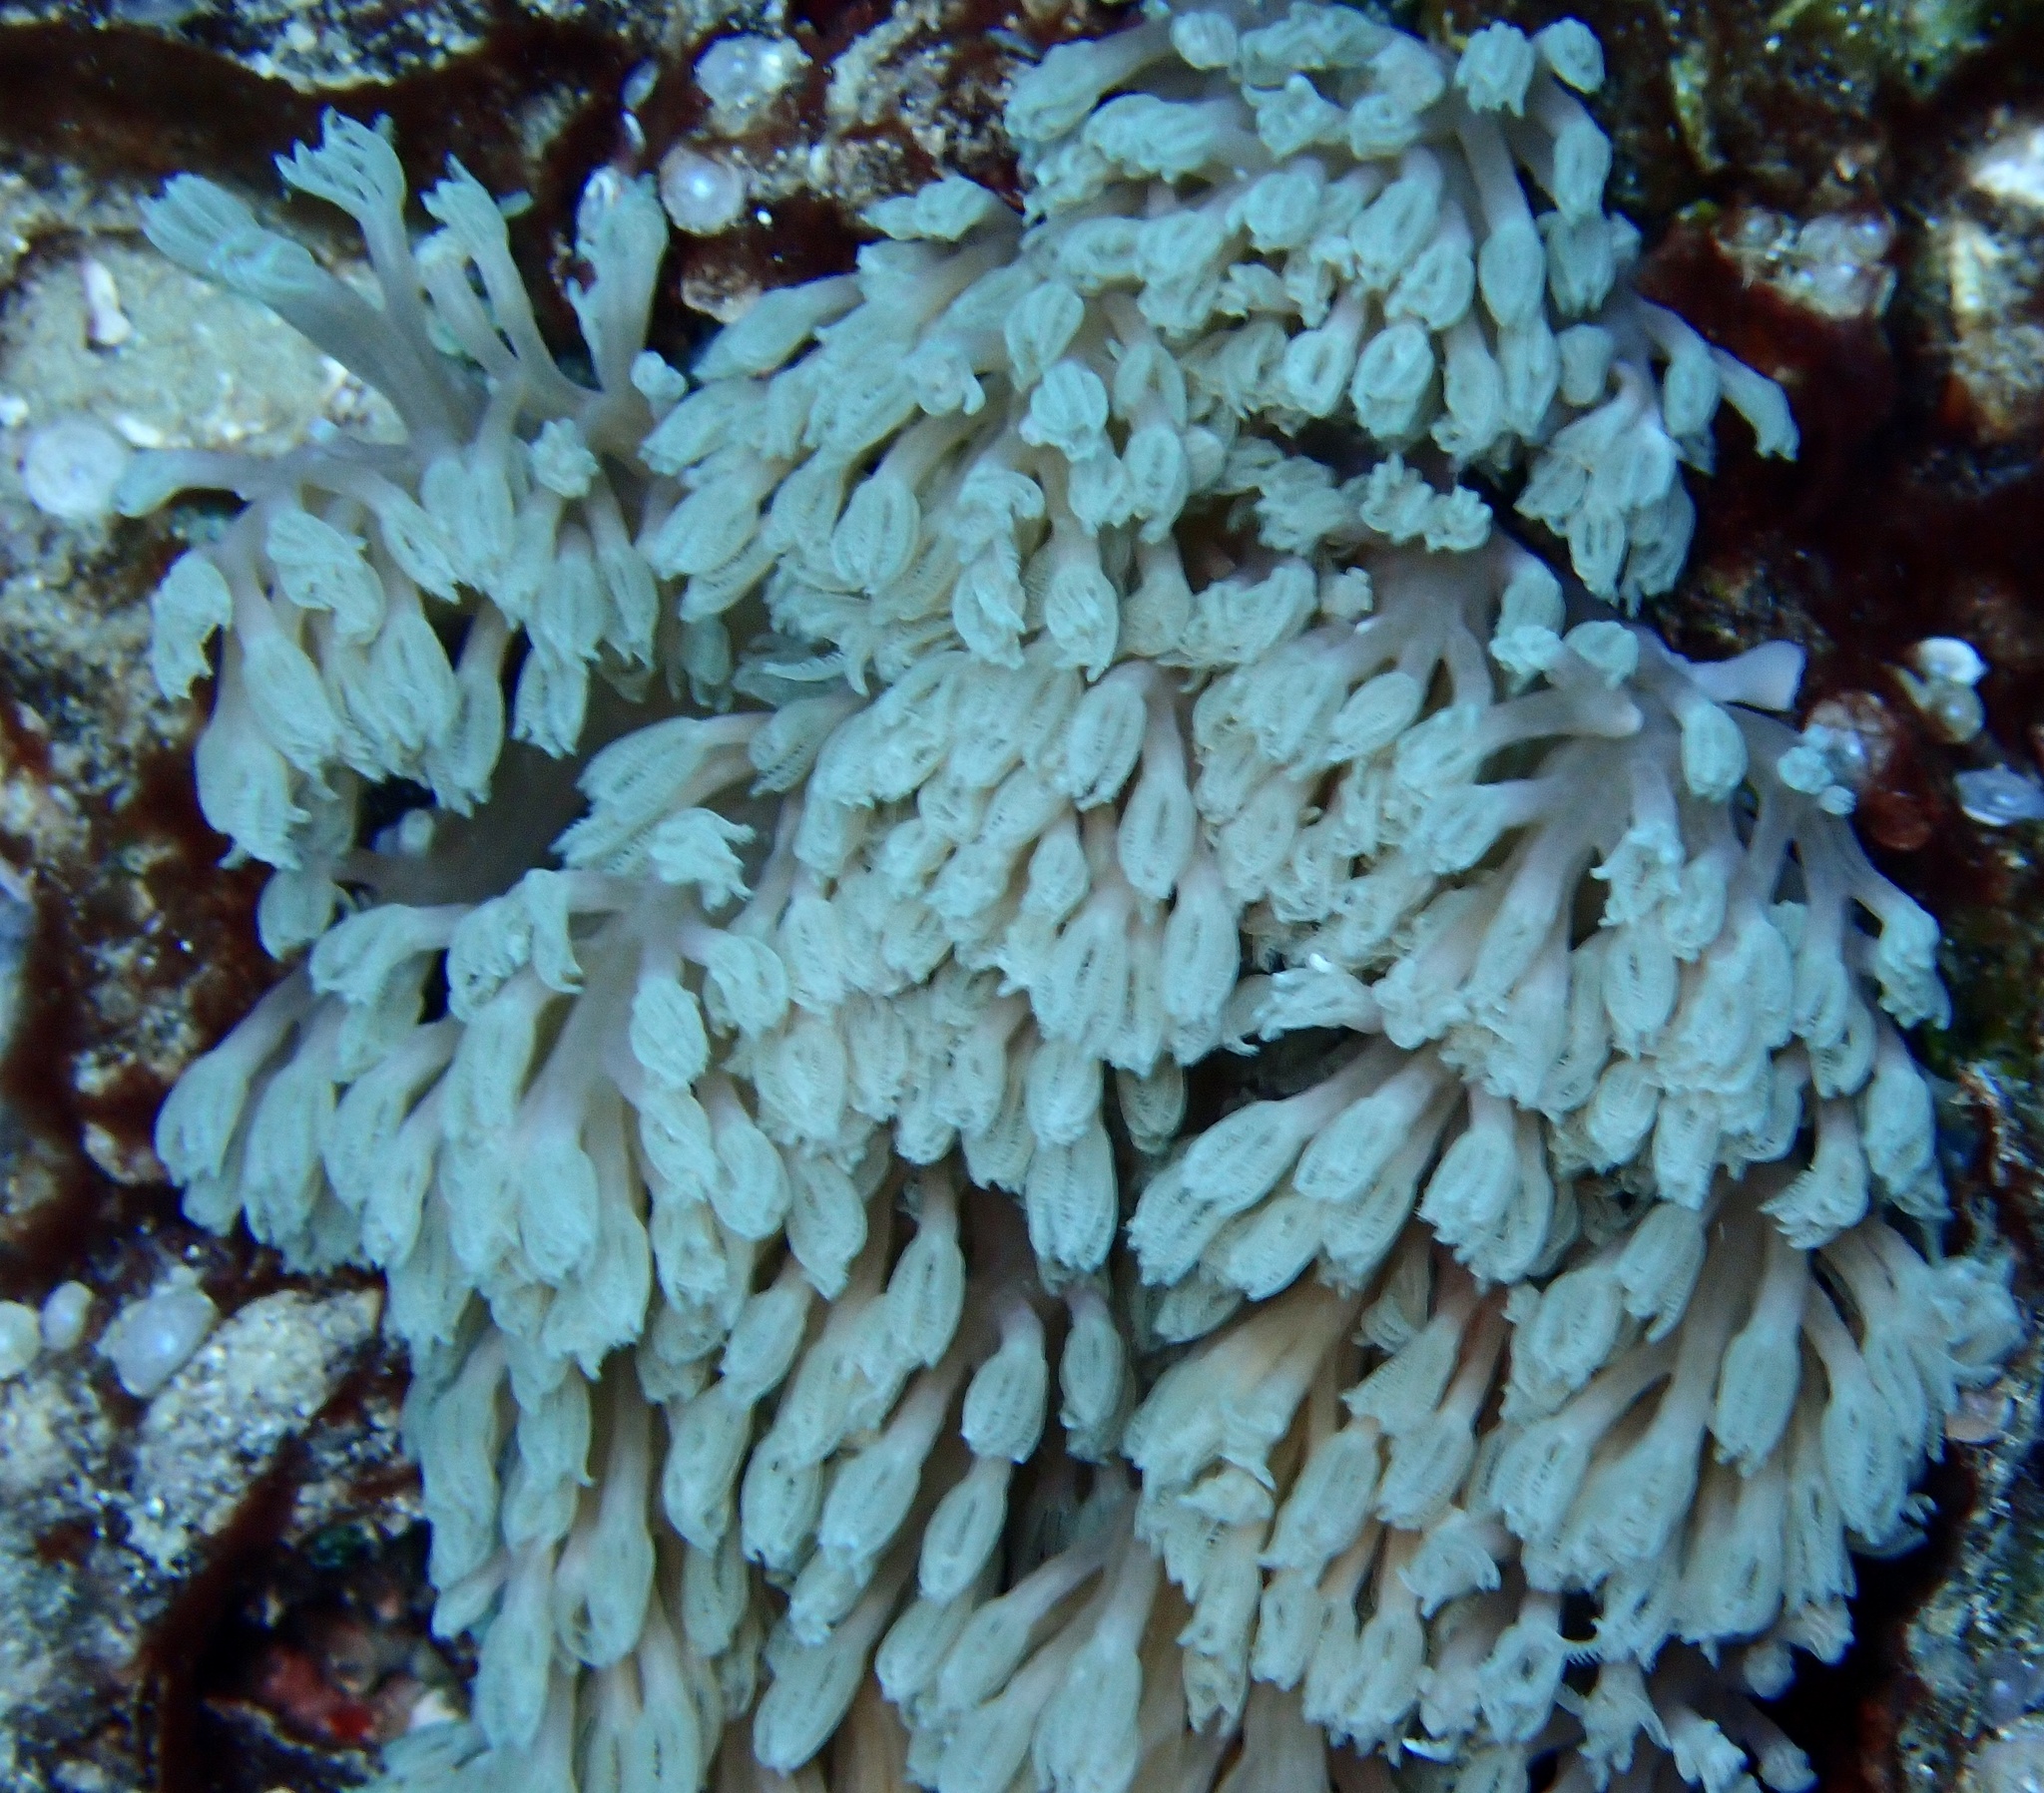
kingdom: Animalia
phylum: Cnidaria
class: Anthozoa
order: Malacalcyonacea
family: Xeniidae
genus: Conglomeratusclera
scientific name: Conglomeratusclera coerulea
